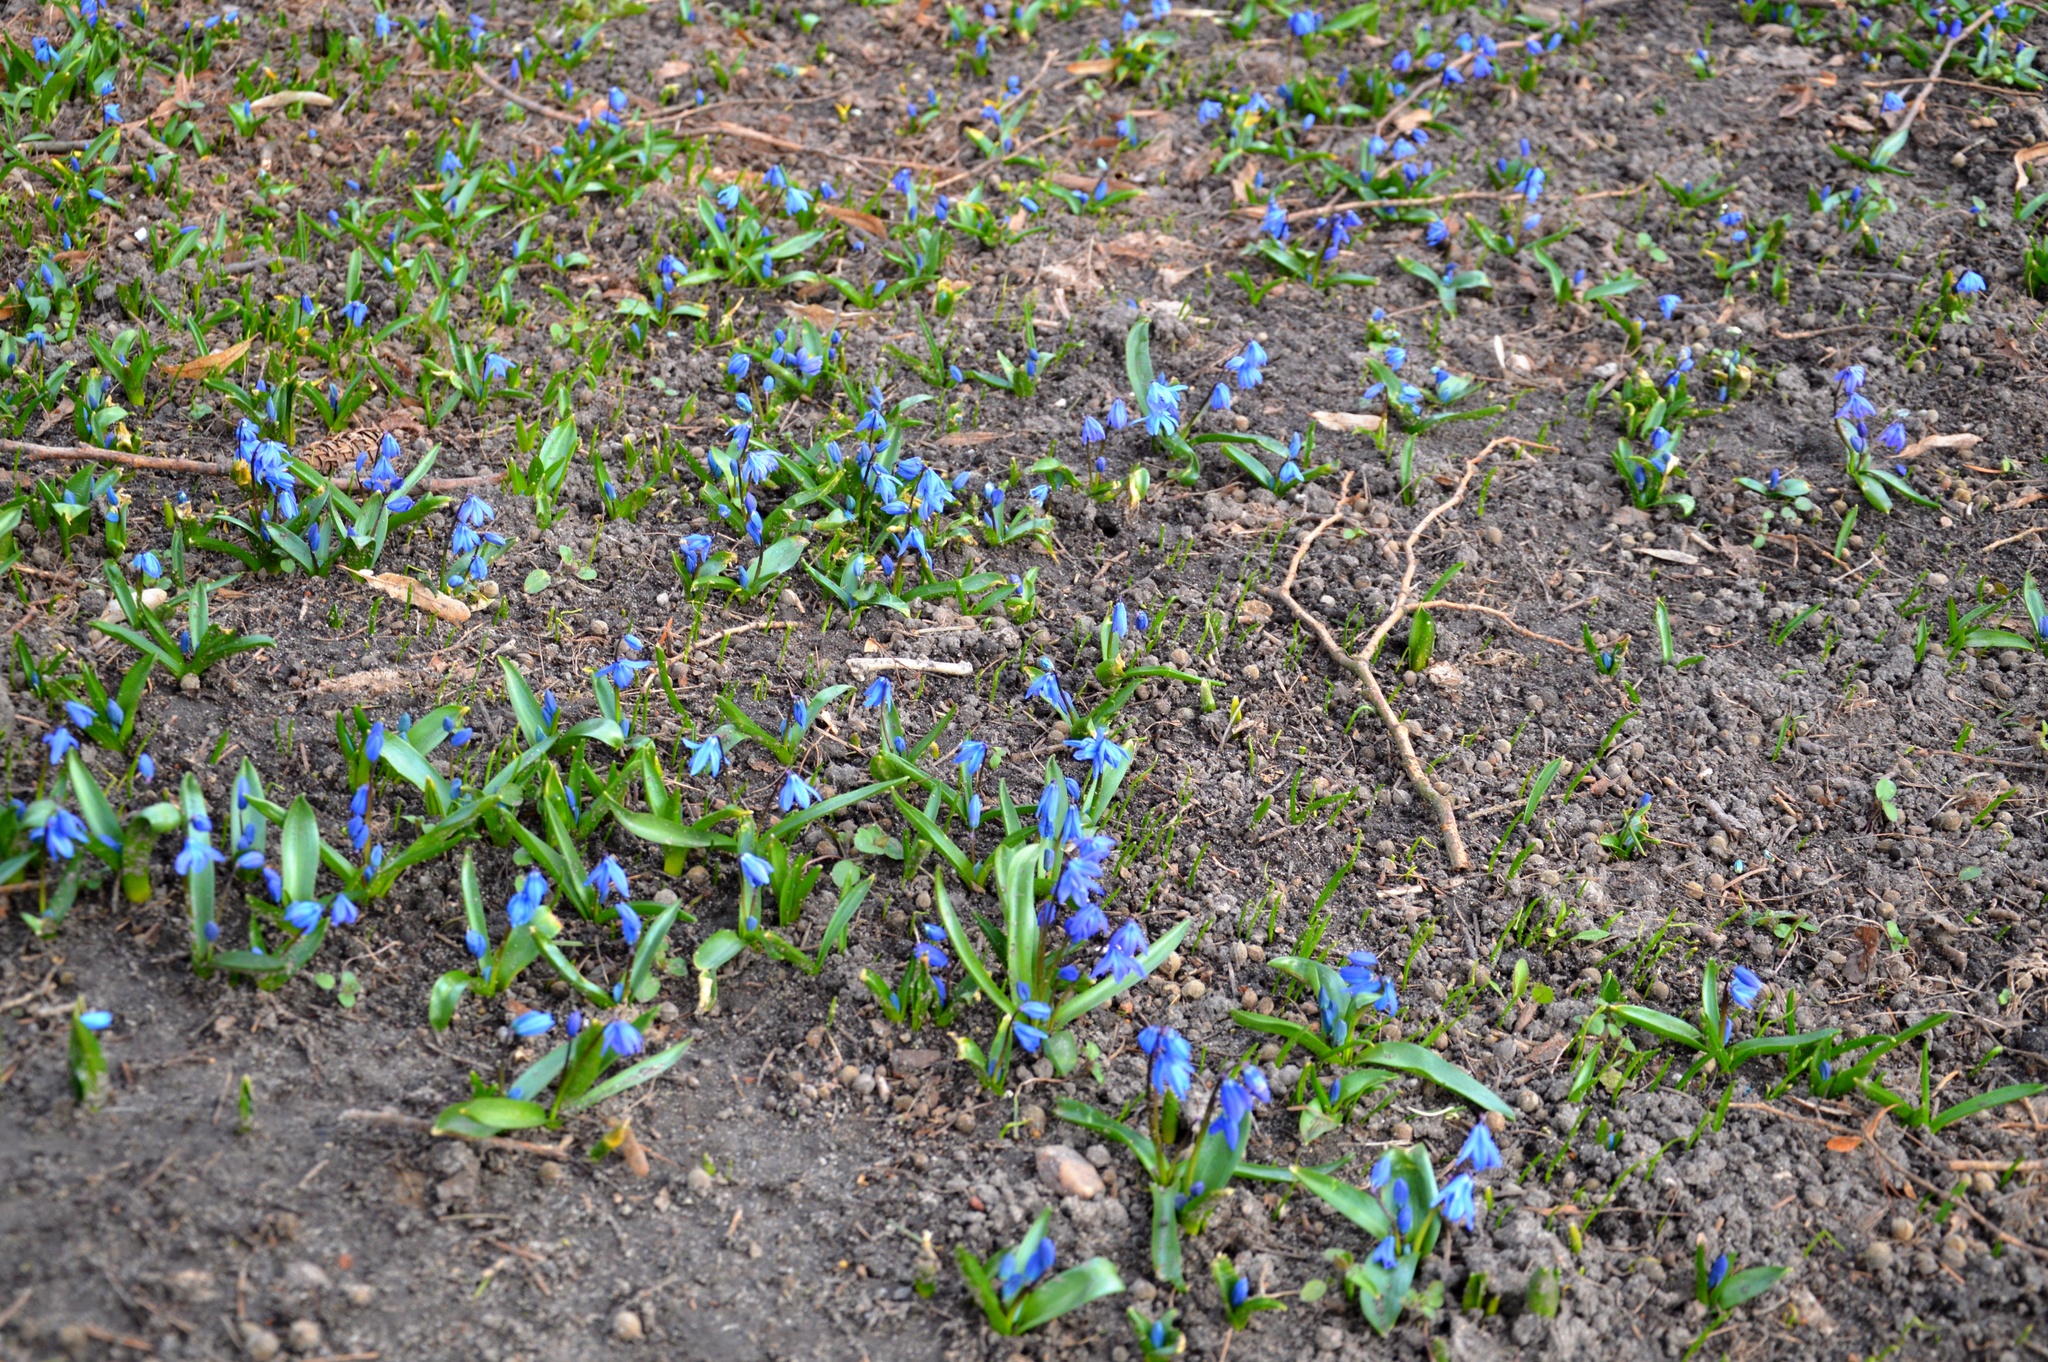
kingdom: Plantae
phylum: Tracheophyta
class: Liliopsida
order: Asparagales
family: Asparagaceae
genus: Scilla
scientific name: Scilla siberica
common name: Siberian squill
